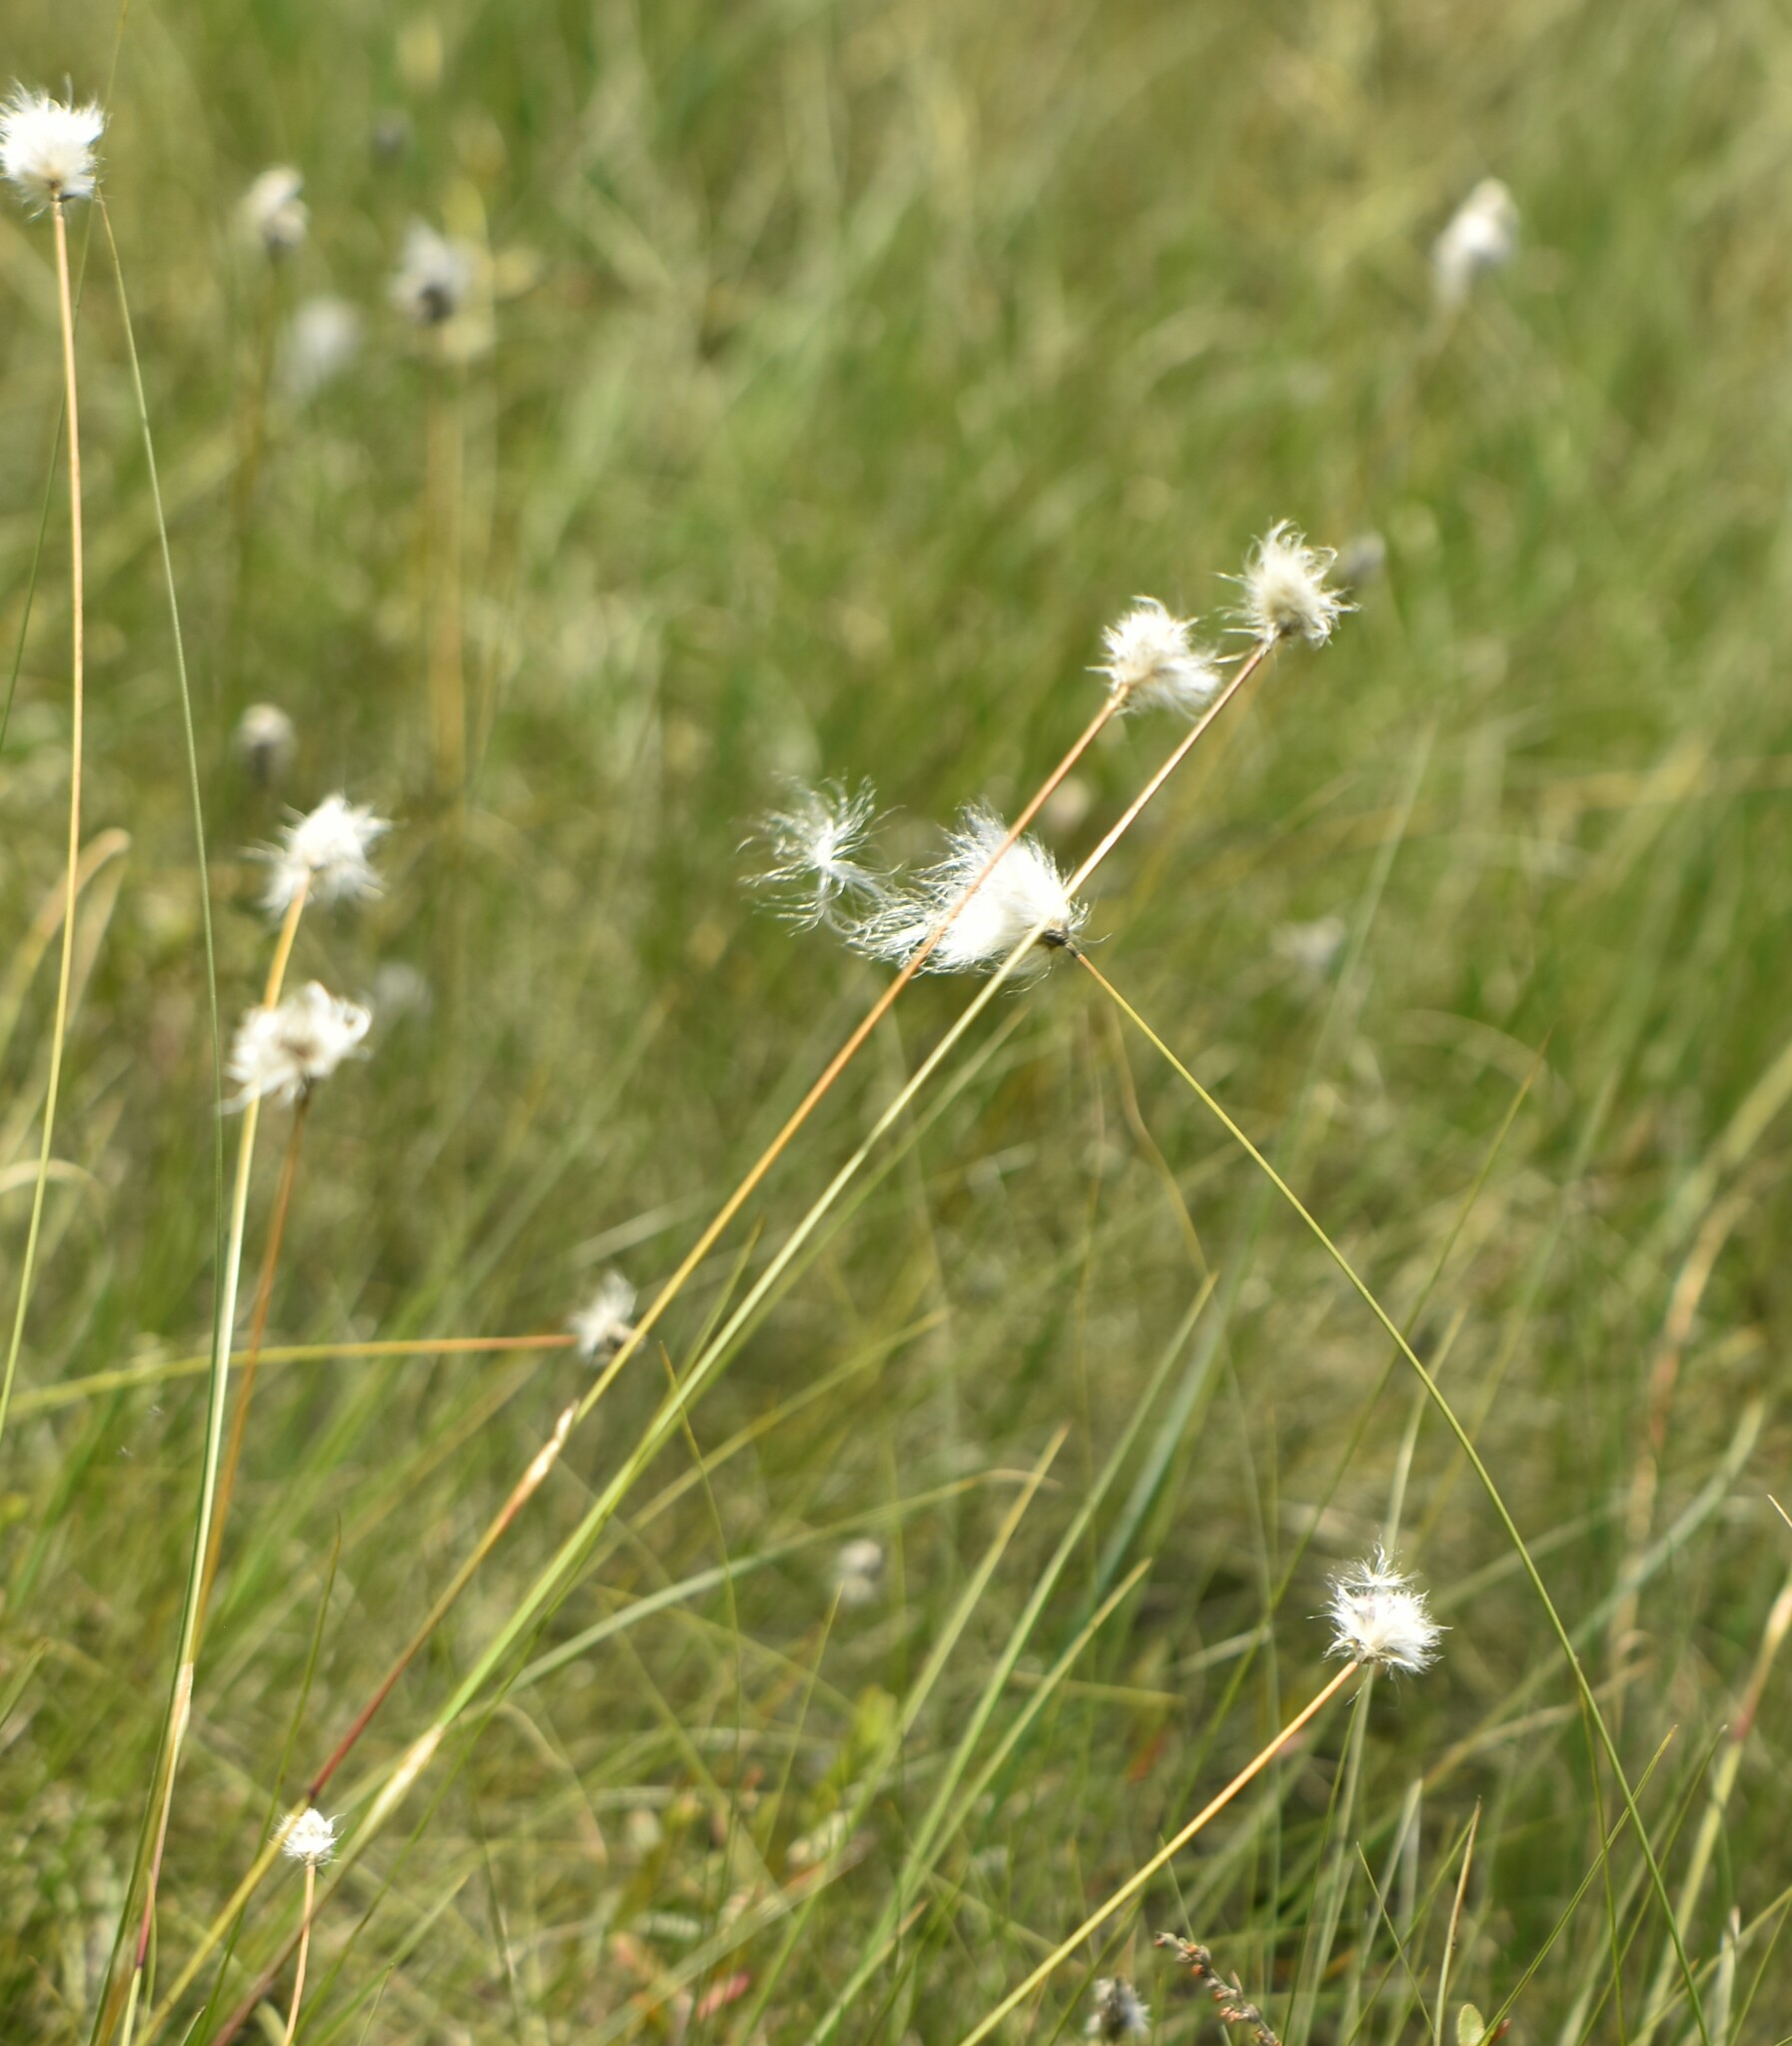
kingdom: Plantae
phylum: Tracheophyta
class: Liliopsida
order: Poales
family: Cyperaceae
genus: Eriophorum
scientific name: Eriophorum vaginatum
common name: Hare's-tail cottongrass
